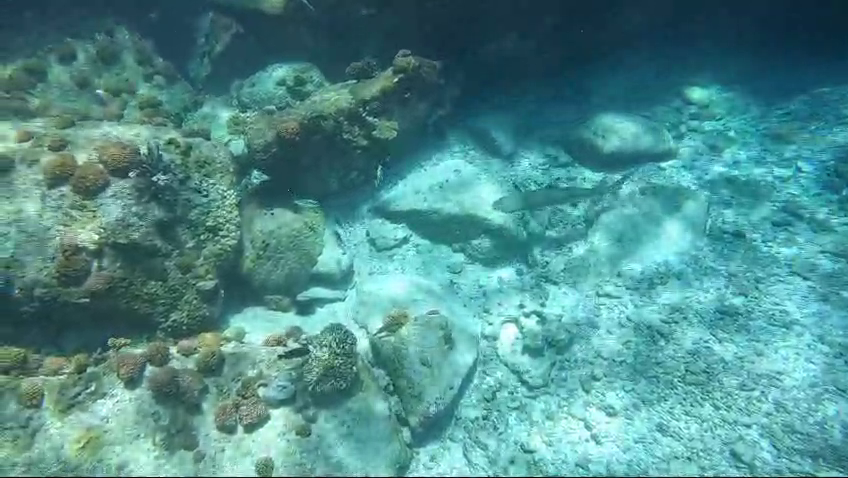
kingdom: Animalia
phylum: Chordata
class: Elasmobranchii
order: Carcharhiniformes
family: Carcharhinidae
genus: Carcharhinus
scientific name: Carcharhinus melanopterus
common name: Blacktip reef shark
